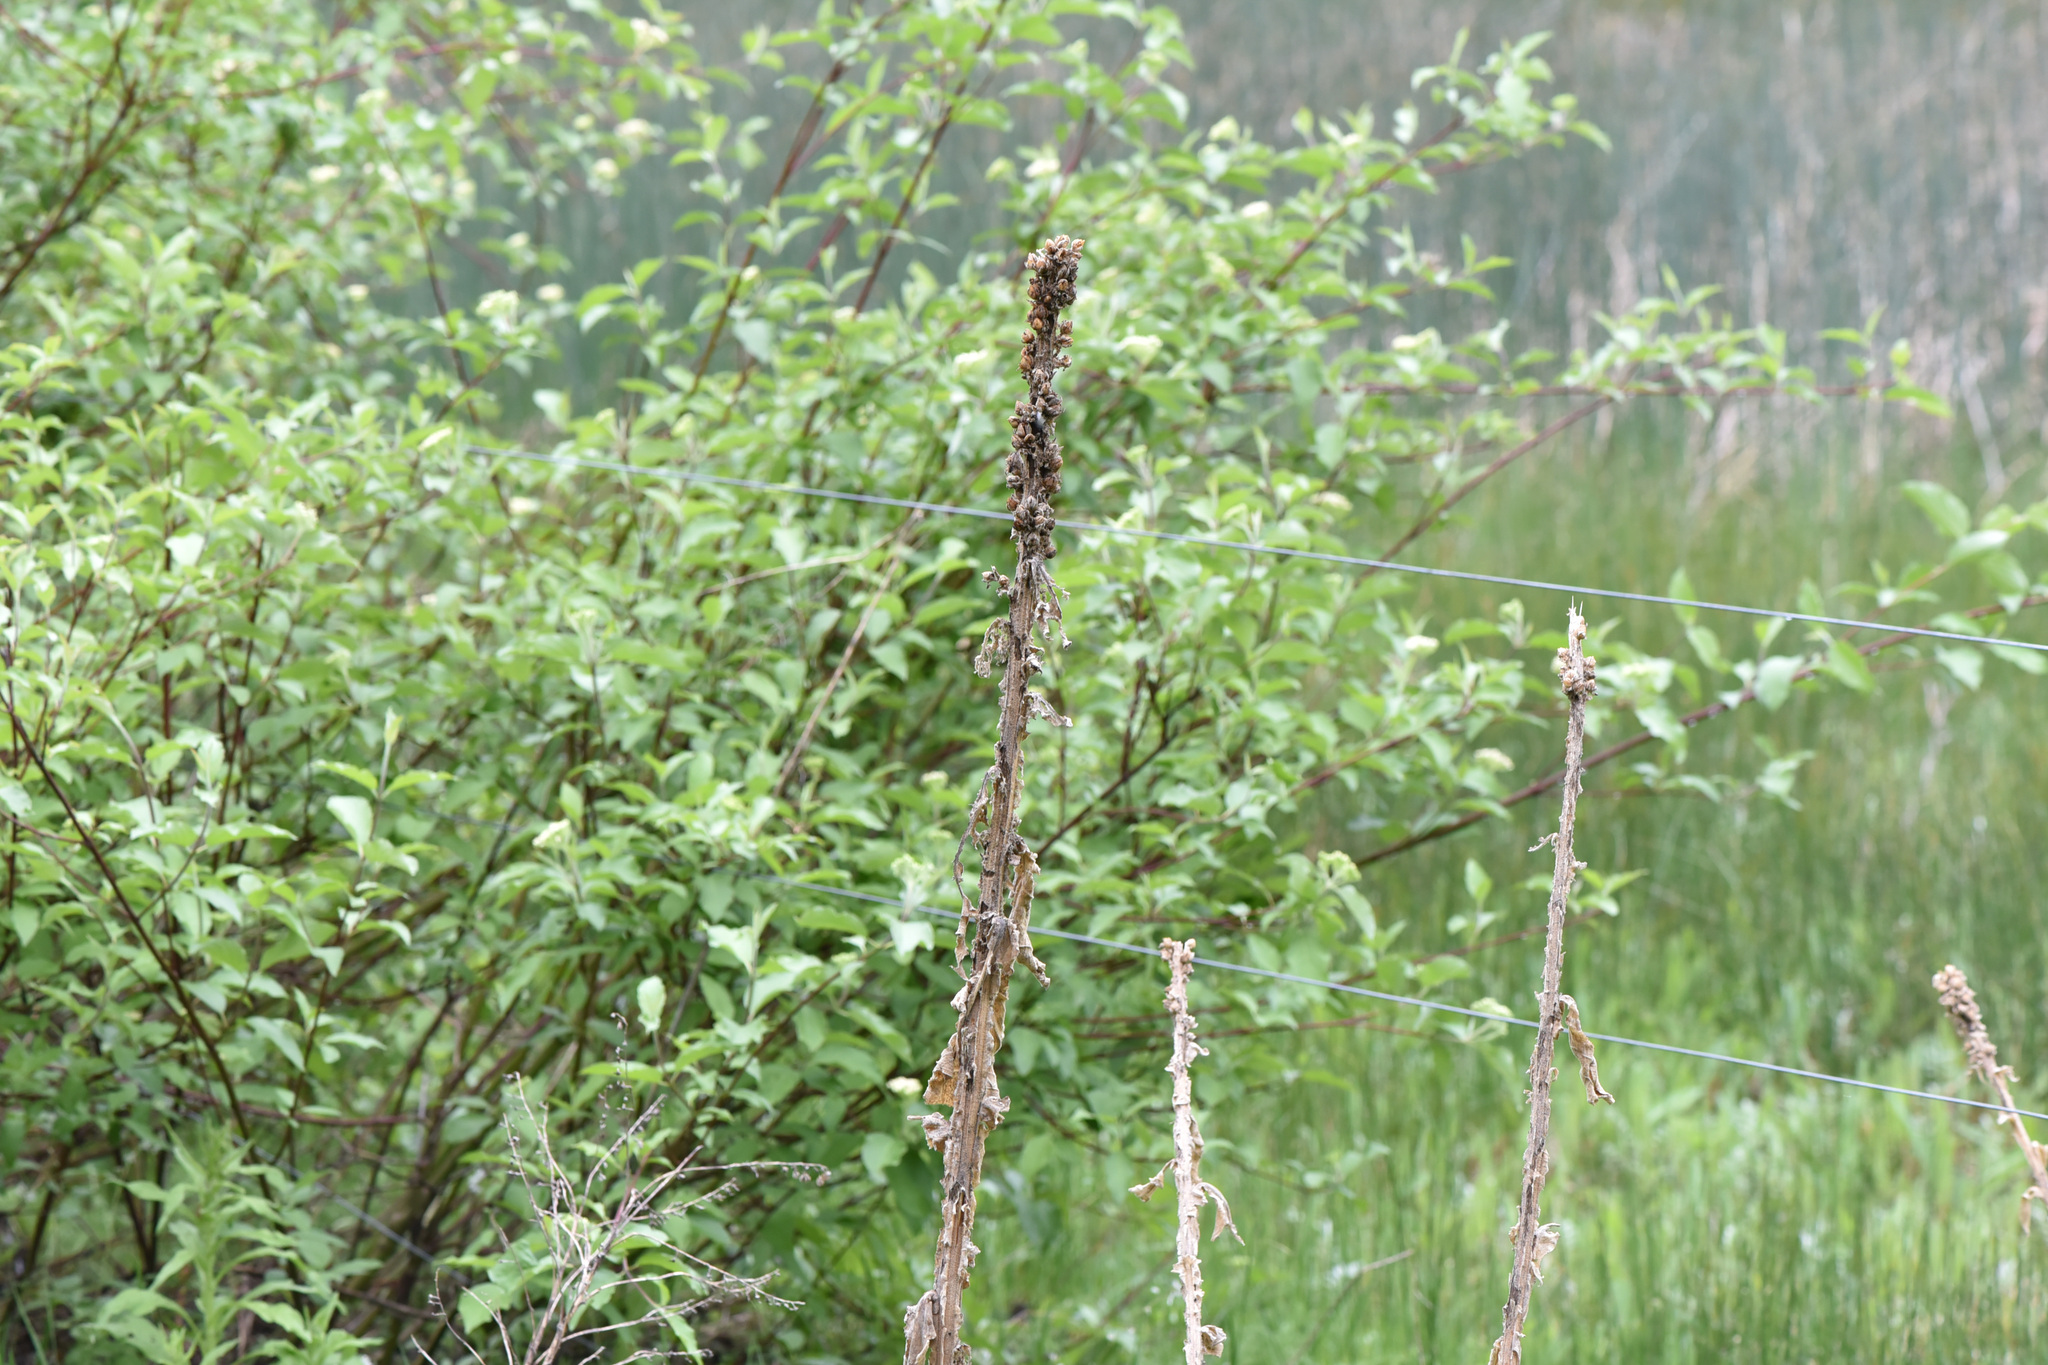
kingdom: Plantae
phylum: Tracheophyta
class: Magnoliopsida
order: Lamiales
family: Scrophulariaceae
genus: Verbascum
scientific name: Verbascum thapsus
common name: Common mullein
